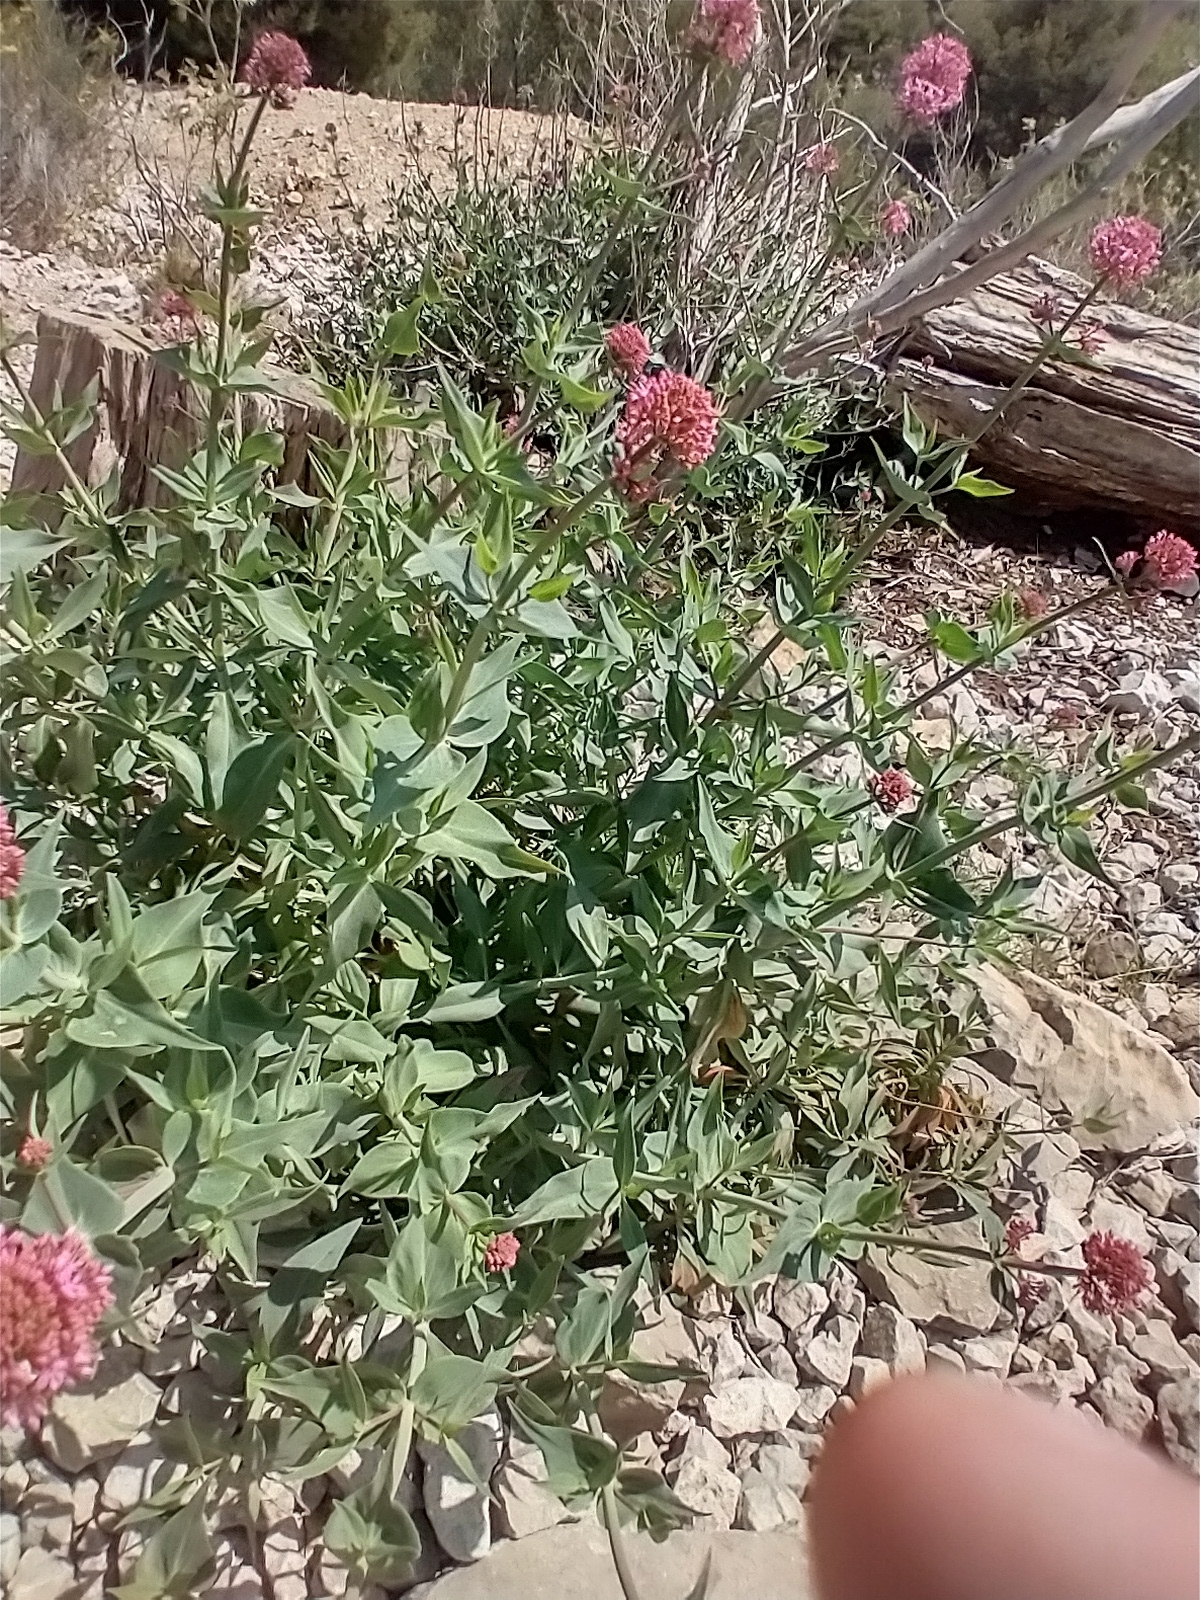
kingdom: Plantae
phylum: Tracheophyta
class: Magnoliopsida
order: Dipsacales
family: Caprifoliaceae
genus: Centranthus
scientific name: Centranthus ruber
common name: Red valerian
